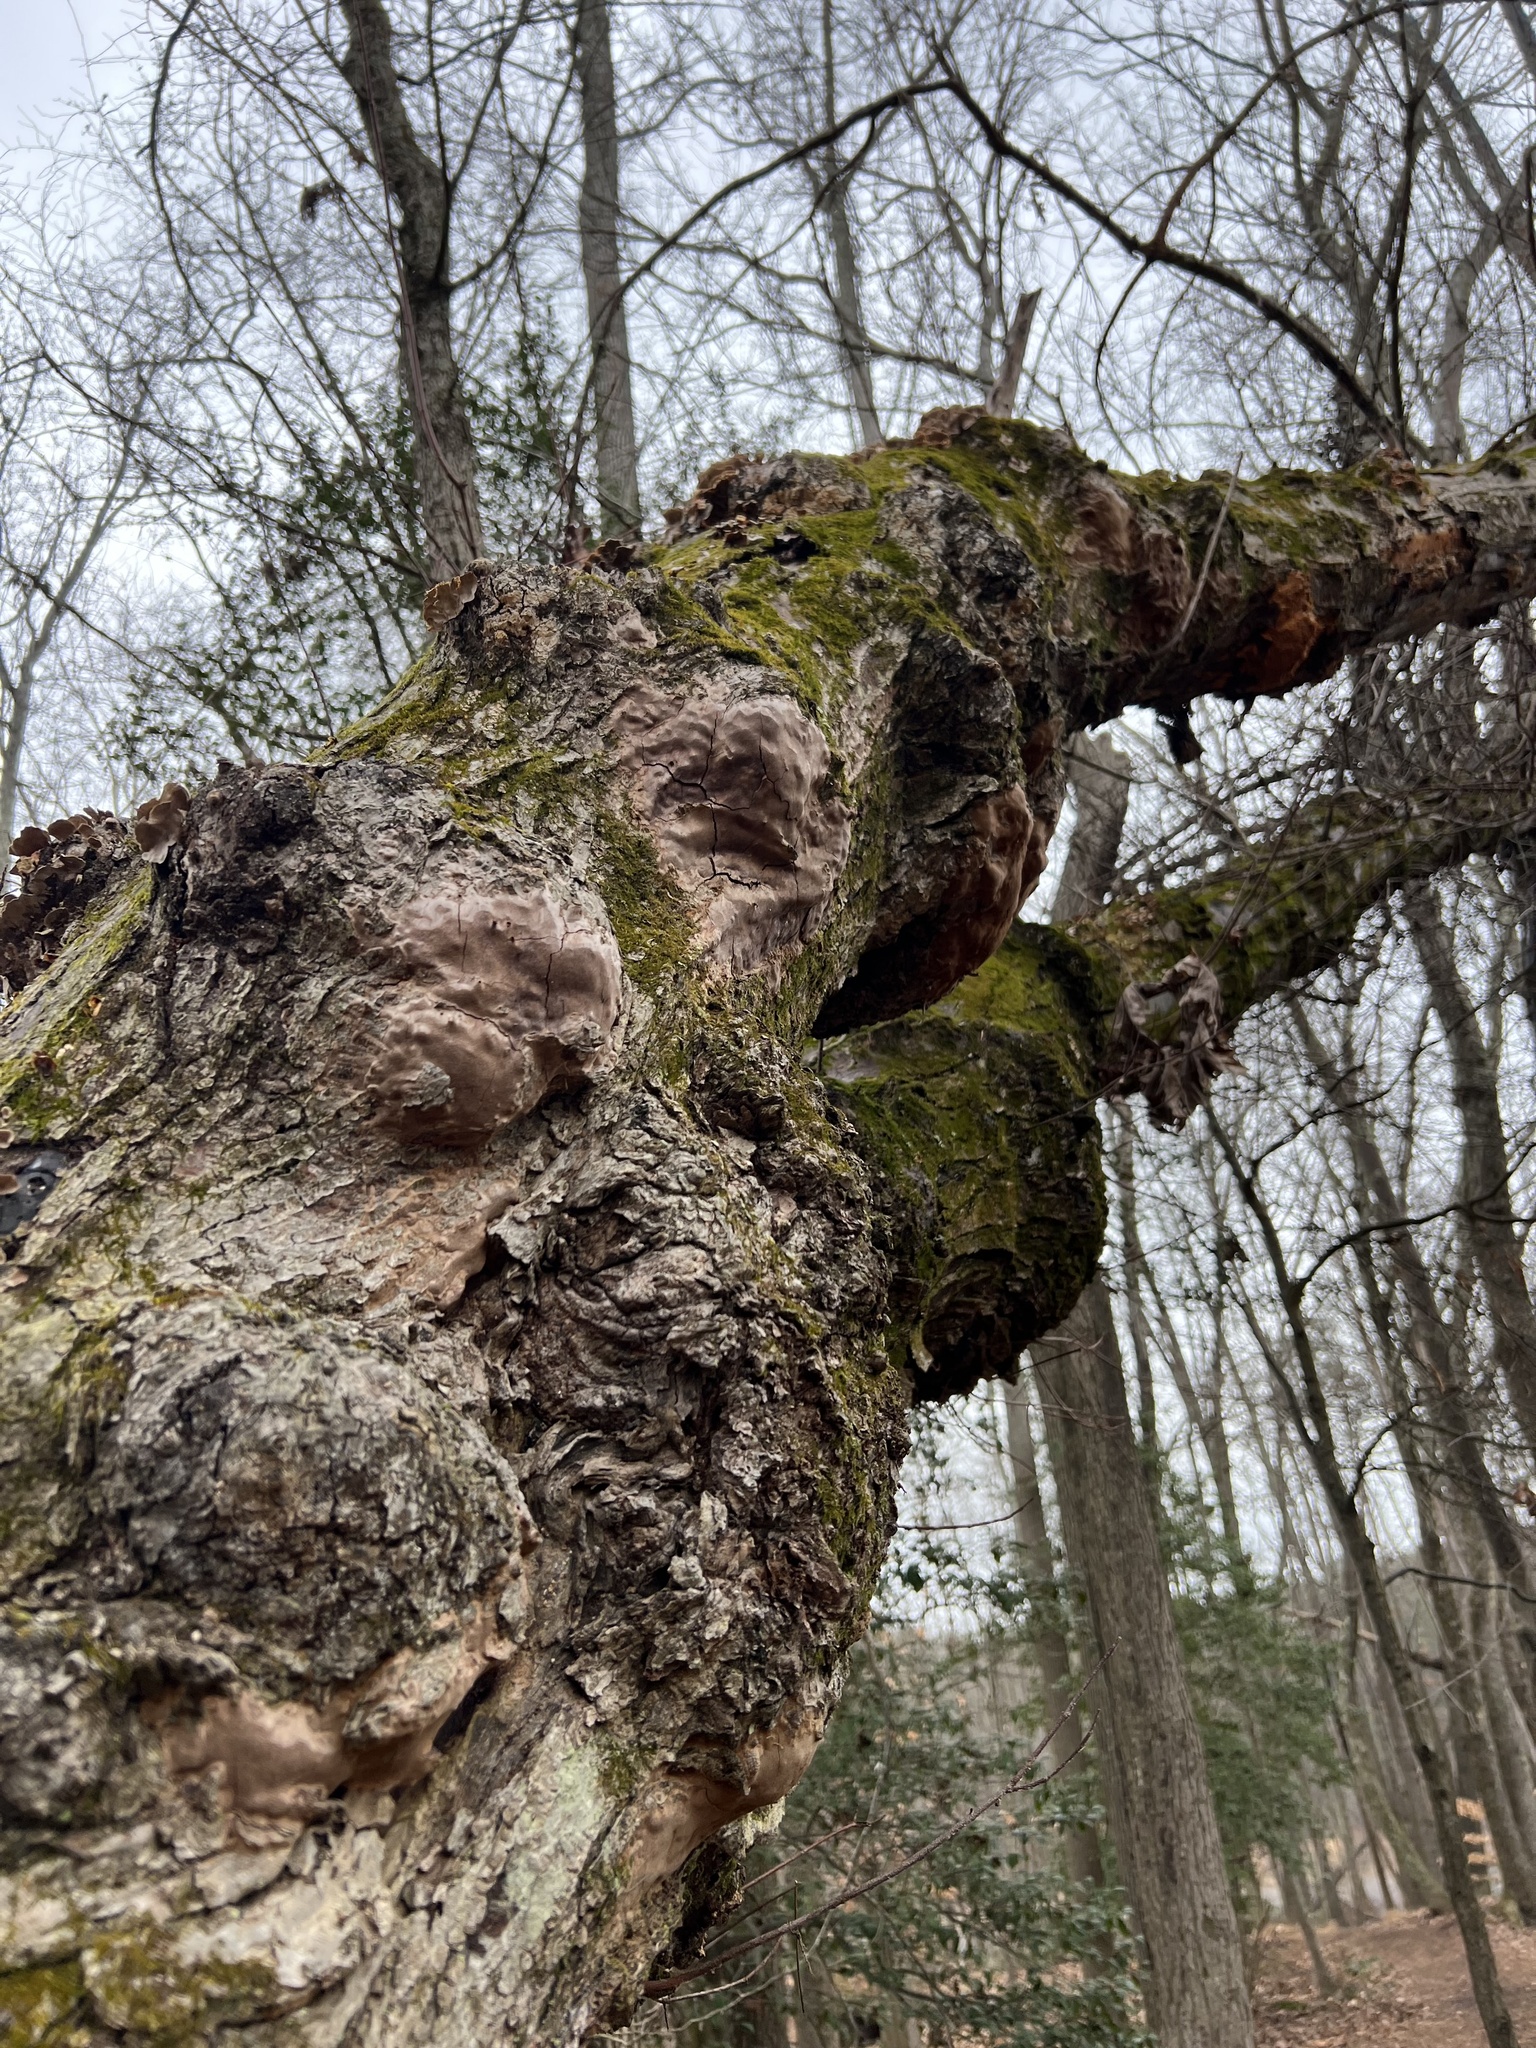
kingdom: Fungi
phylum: Basidiomycota
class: Agaricomycetes
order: Hymenochaetales
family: Hymenochaetaceae
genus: Fomitiporia
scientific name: Fomitiporia punctata
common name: Elbowpatch crust
